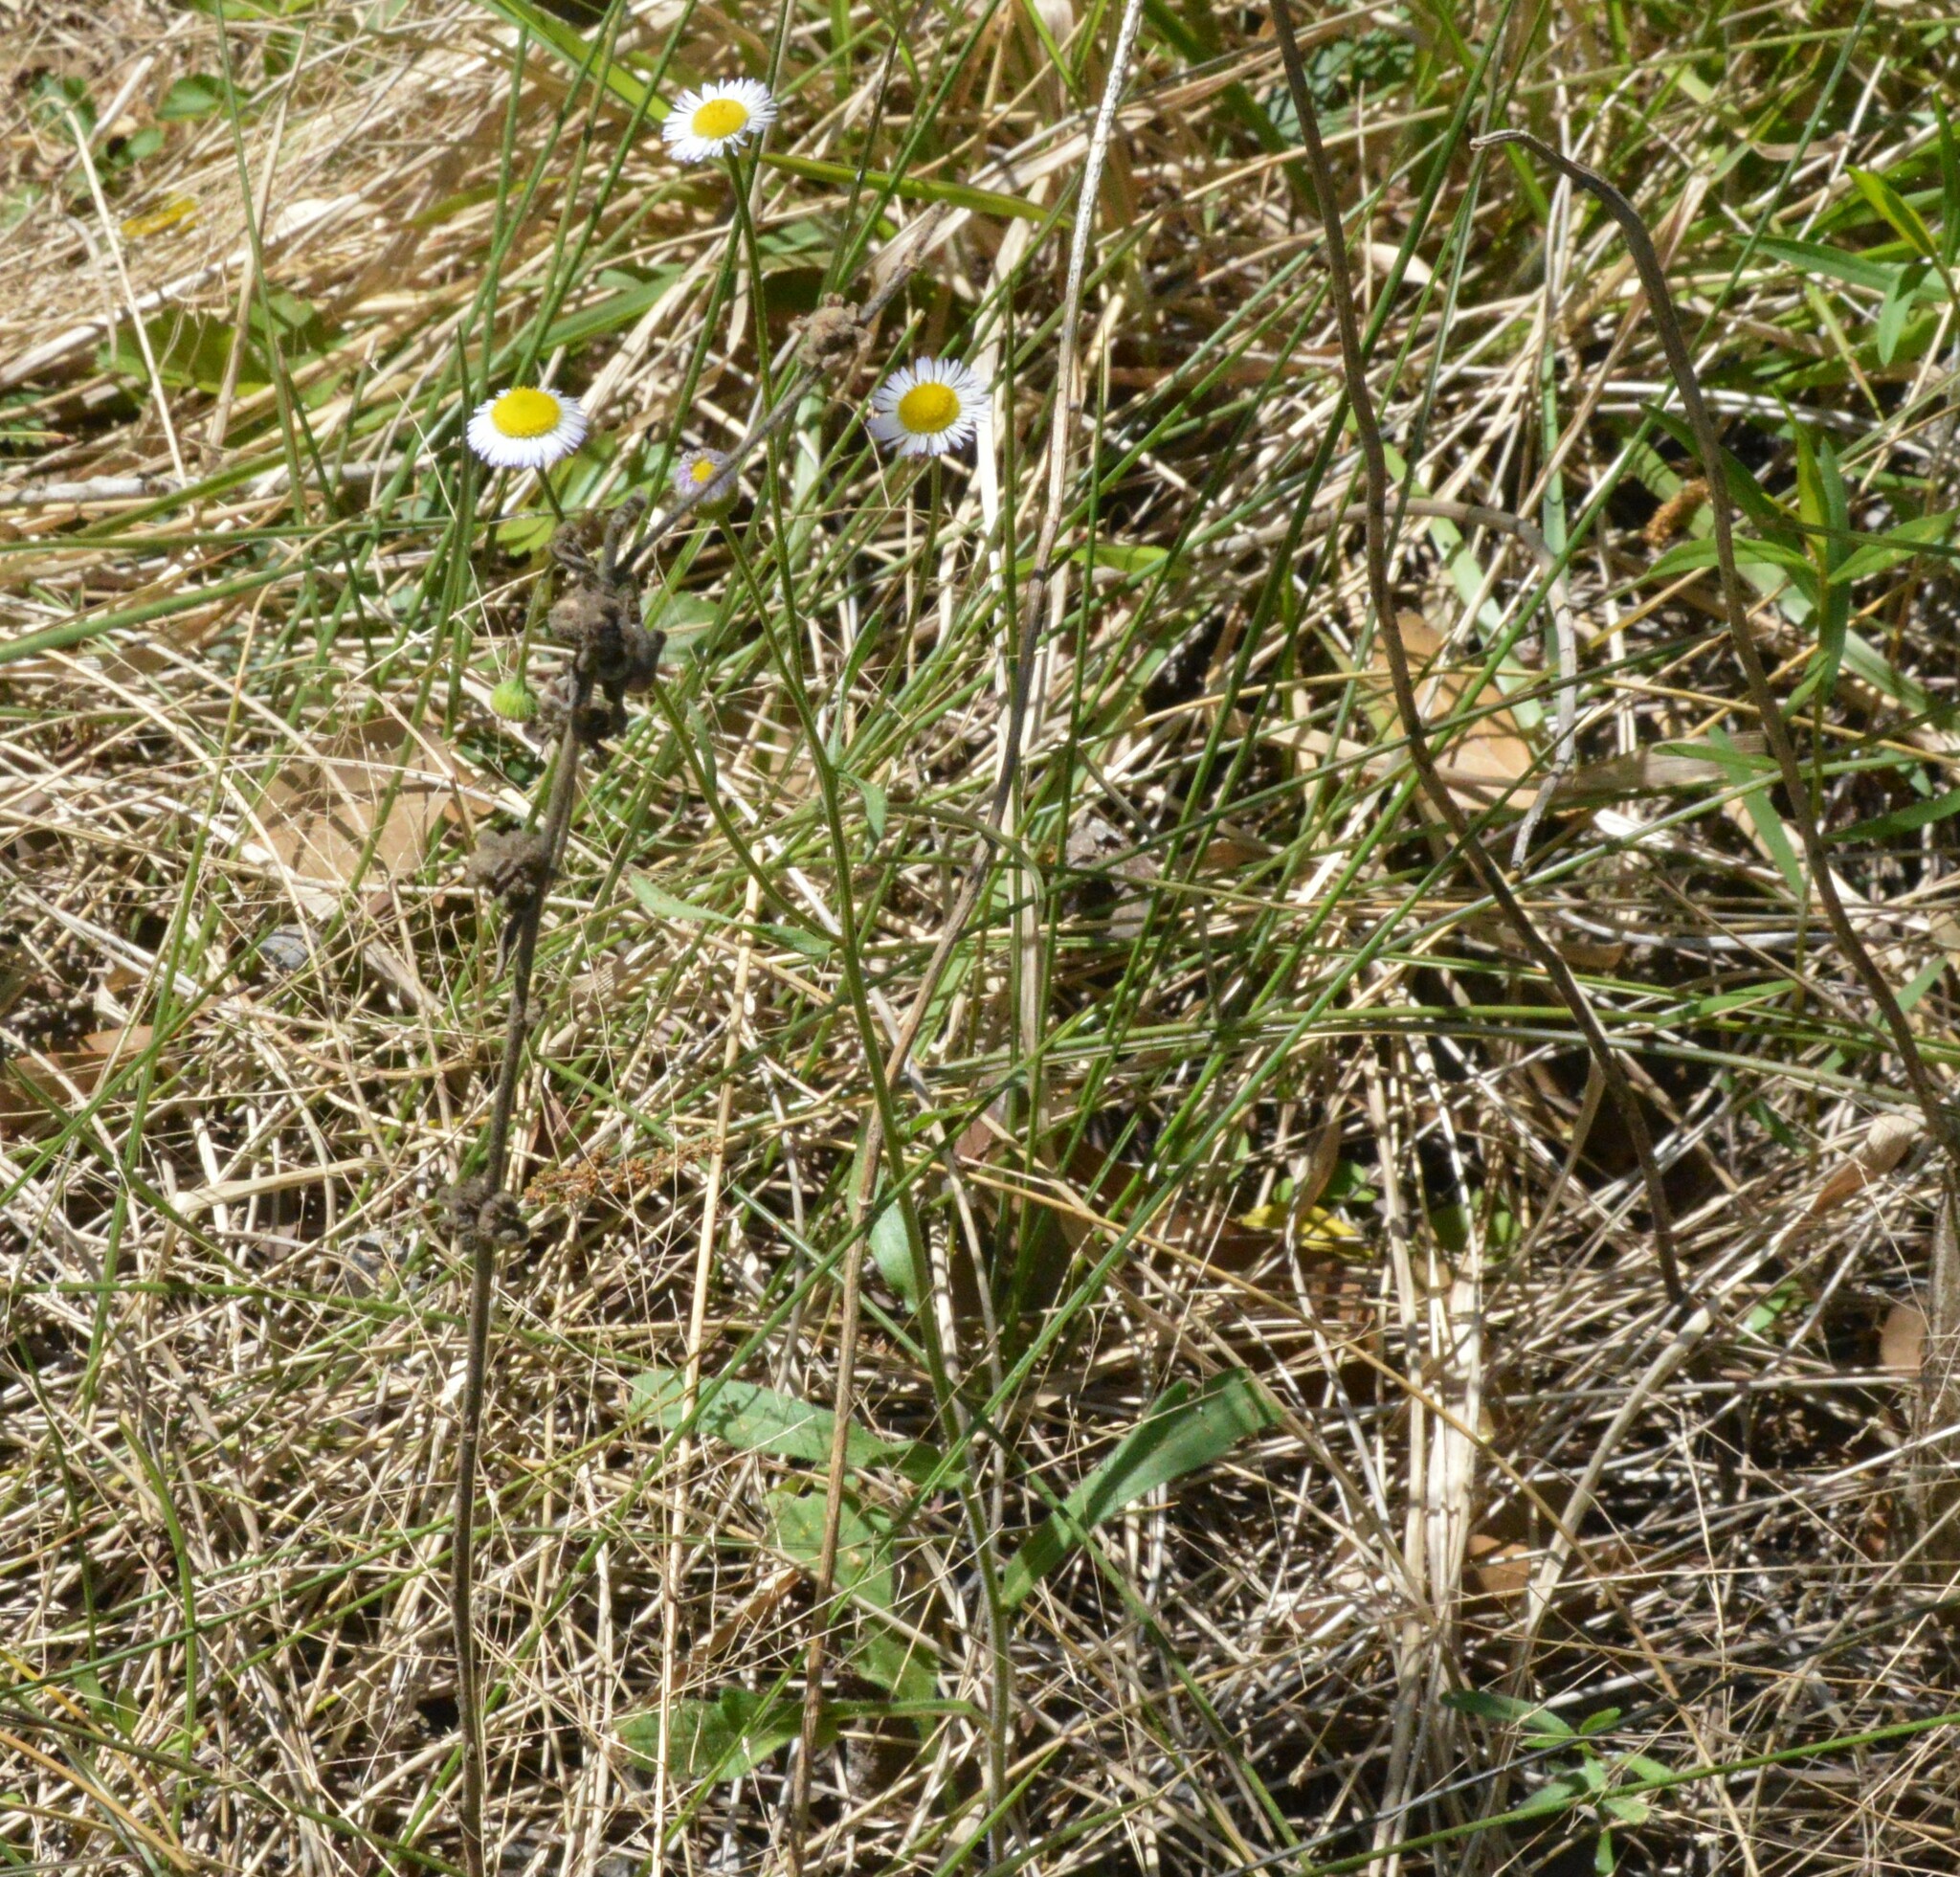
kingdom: Plantae
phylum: Tracheophyta
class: Magnoliopsida
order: Asterales
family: Asteraceae
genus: Erigeron
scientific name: Erigeron tenuis
